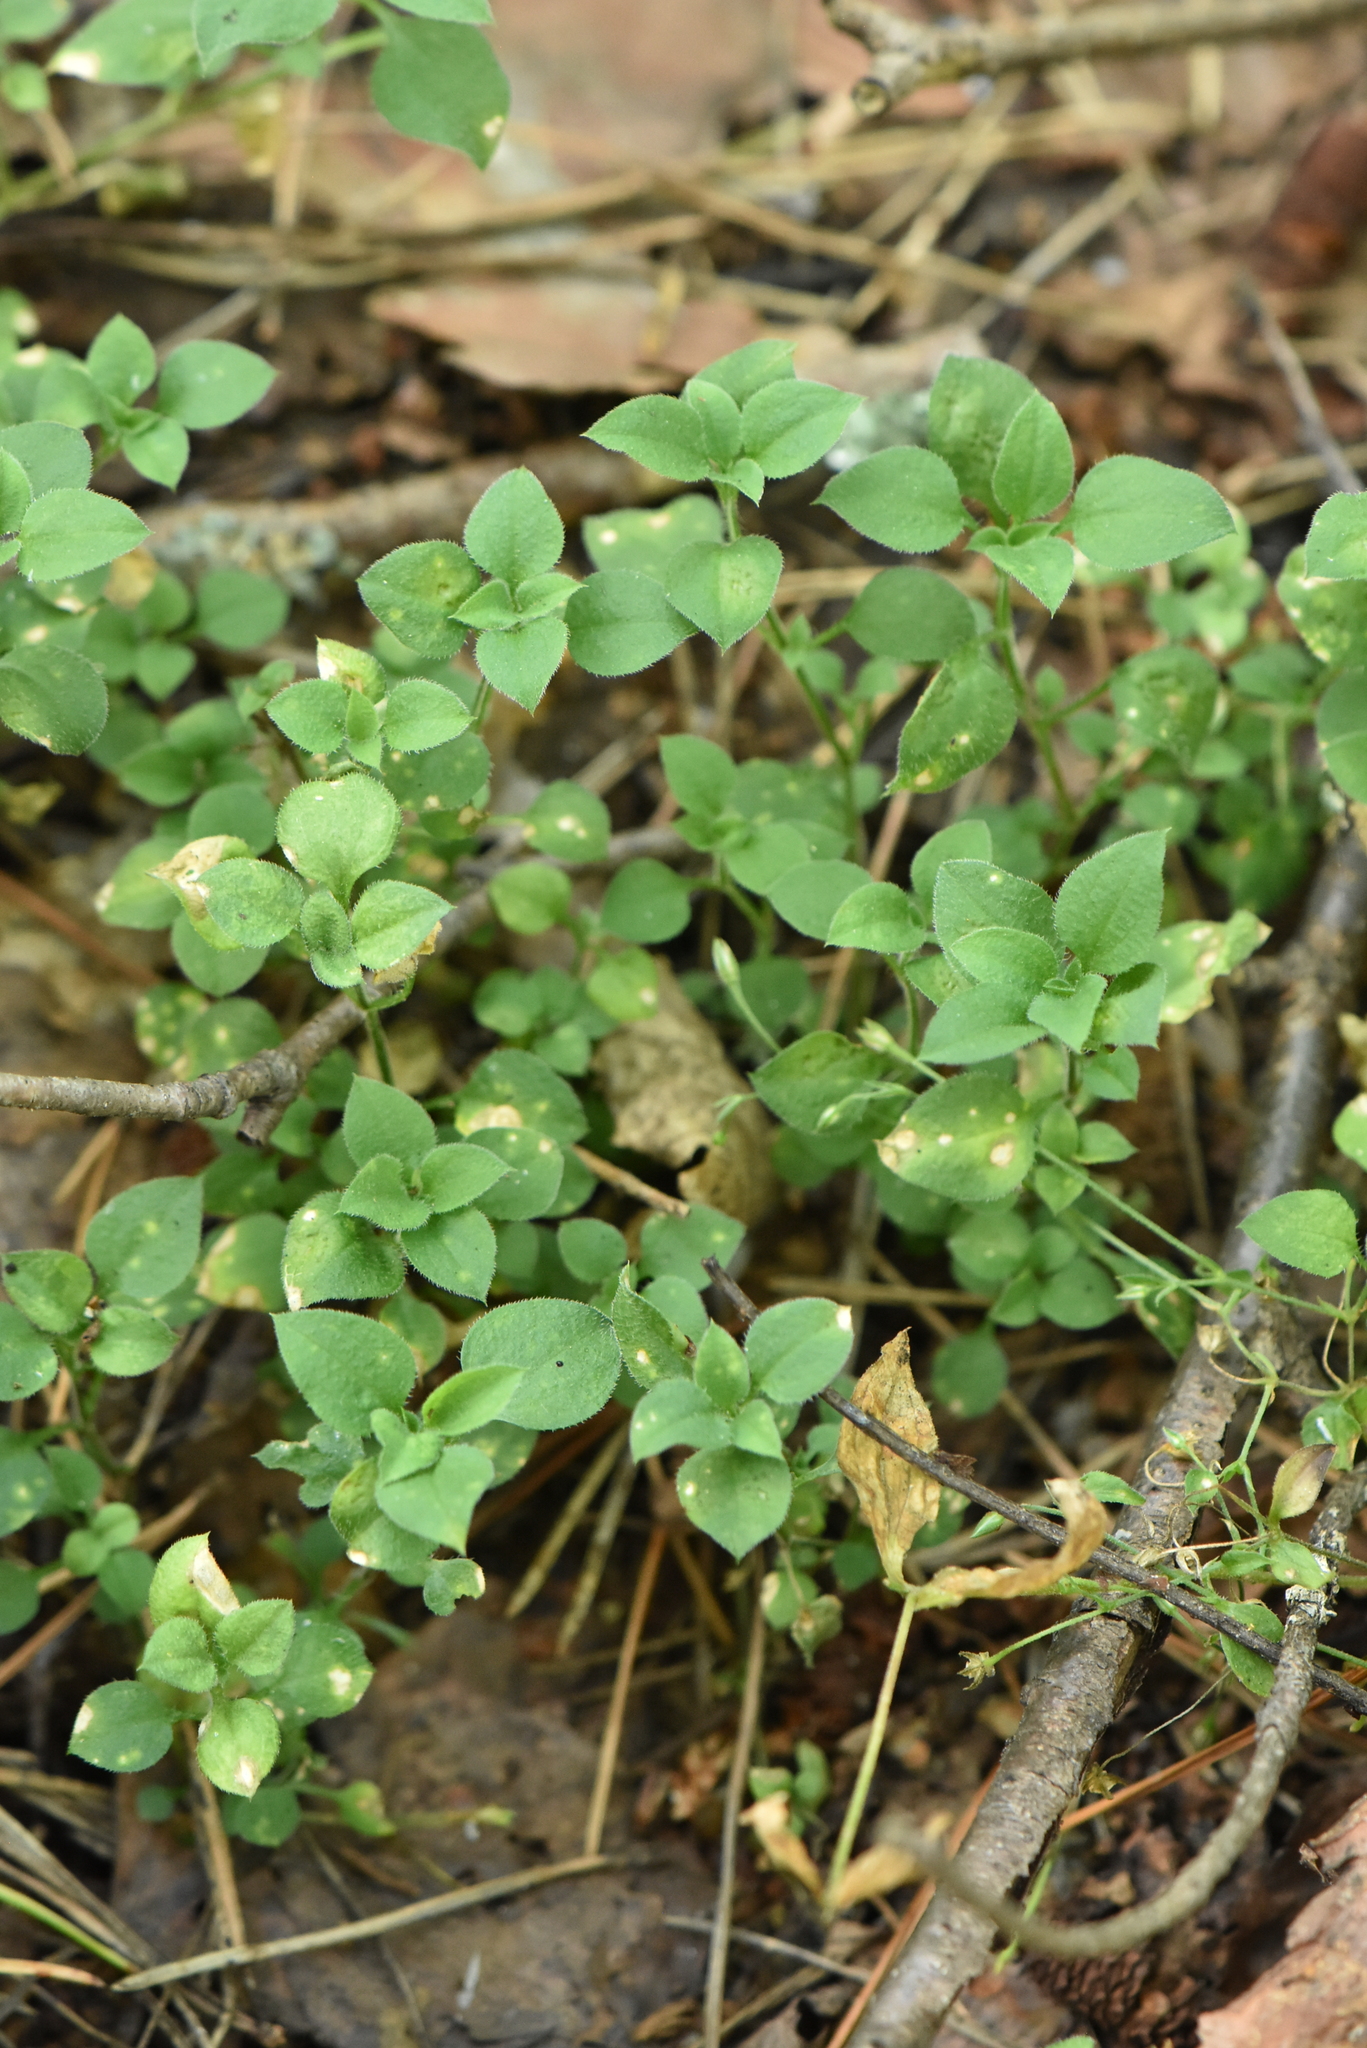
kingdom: Plantae
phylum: Tracheophyta
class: Magnoliopsida
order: Caryophyllales
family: Caryophyllaceae
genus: Moehringia
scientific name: Moehringia trinervia
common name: Three-nerved sandwort
